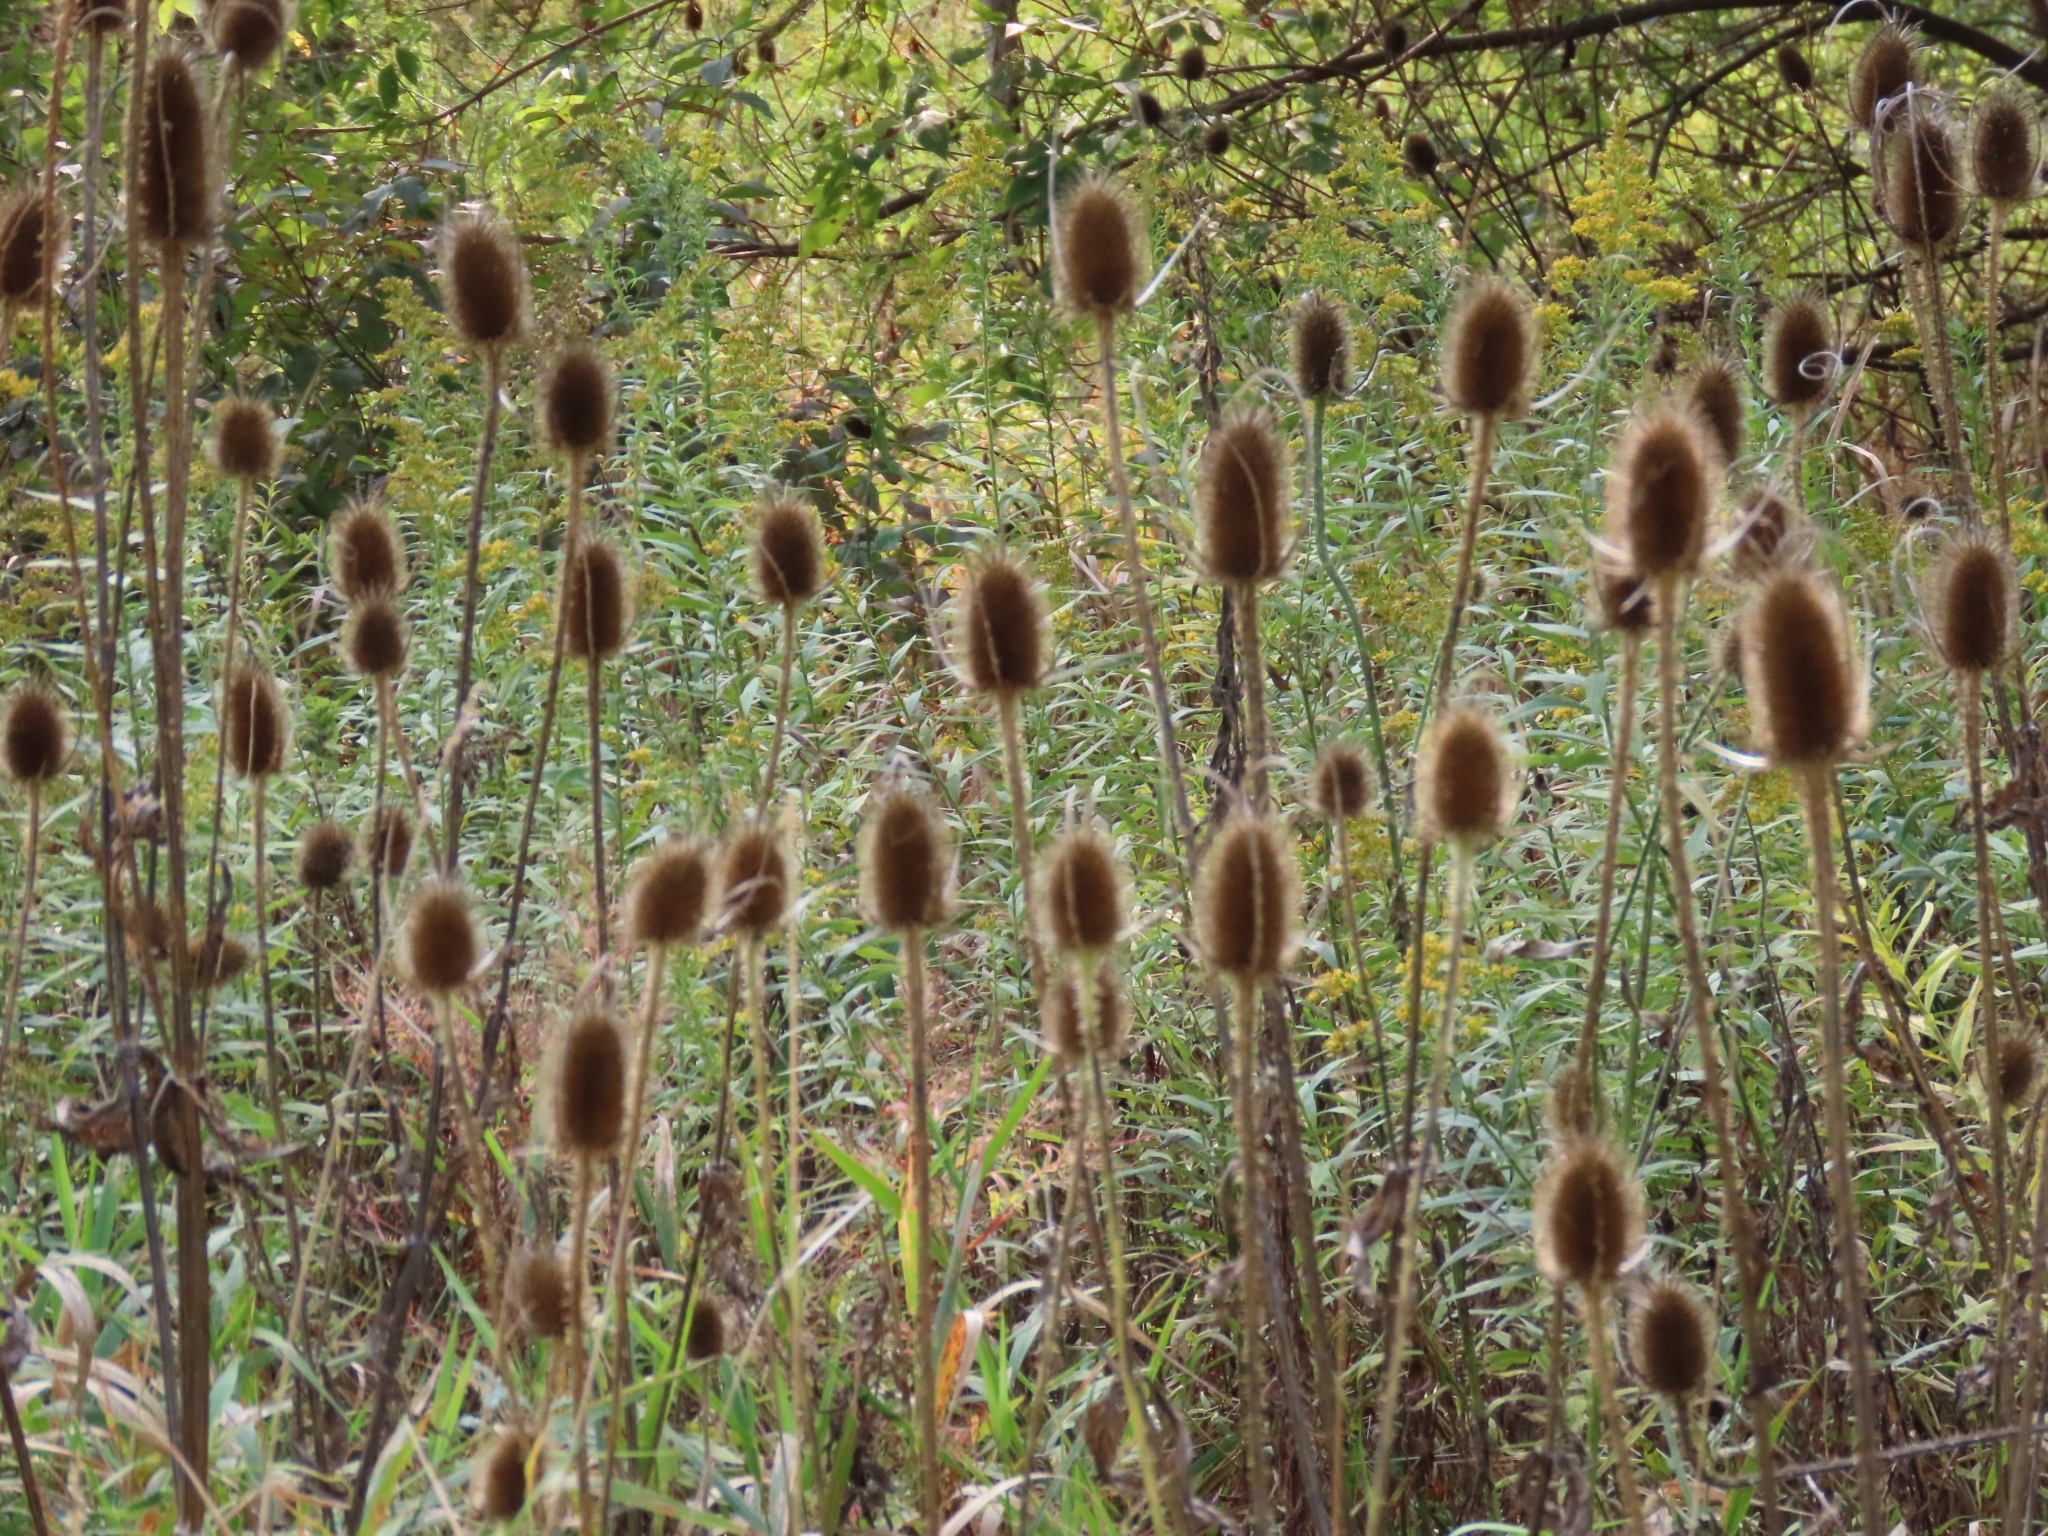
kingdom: Plantae
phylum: Tracheophyta
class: Magnoliopsida
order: Dipsacales
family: Caprifoliaceae
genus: Dipsacus
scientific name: Dipsacus fullonum
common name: Teasel
